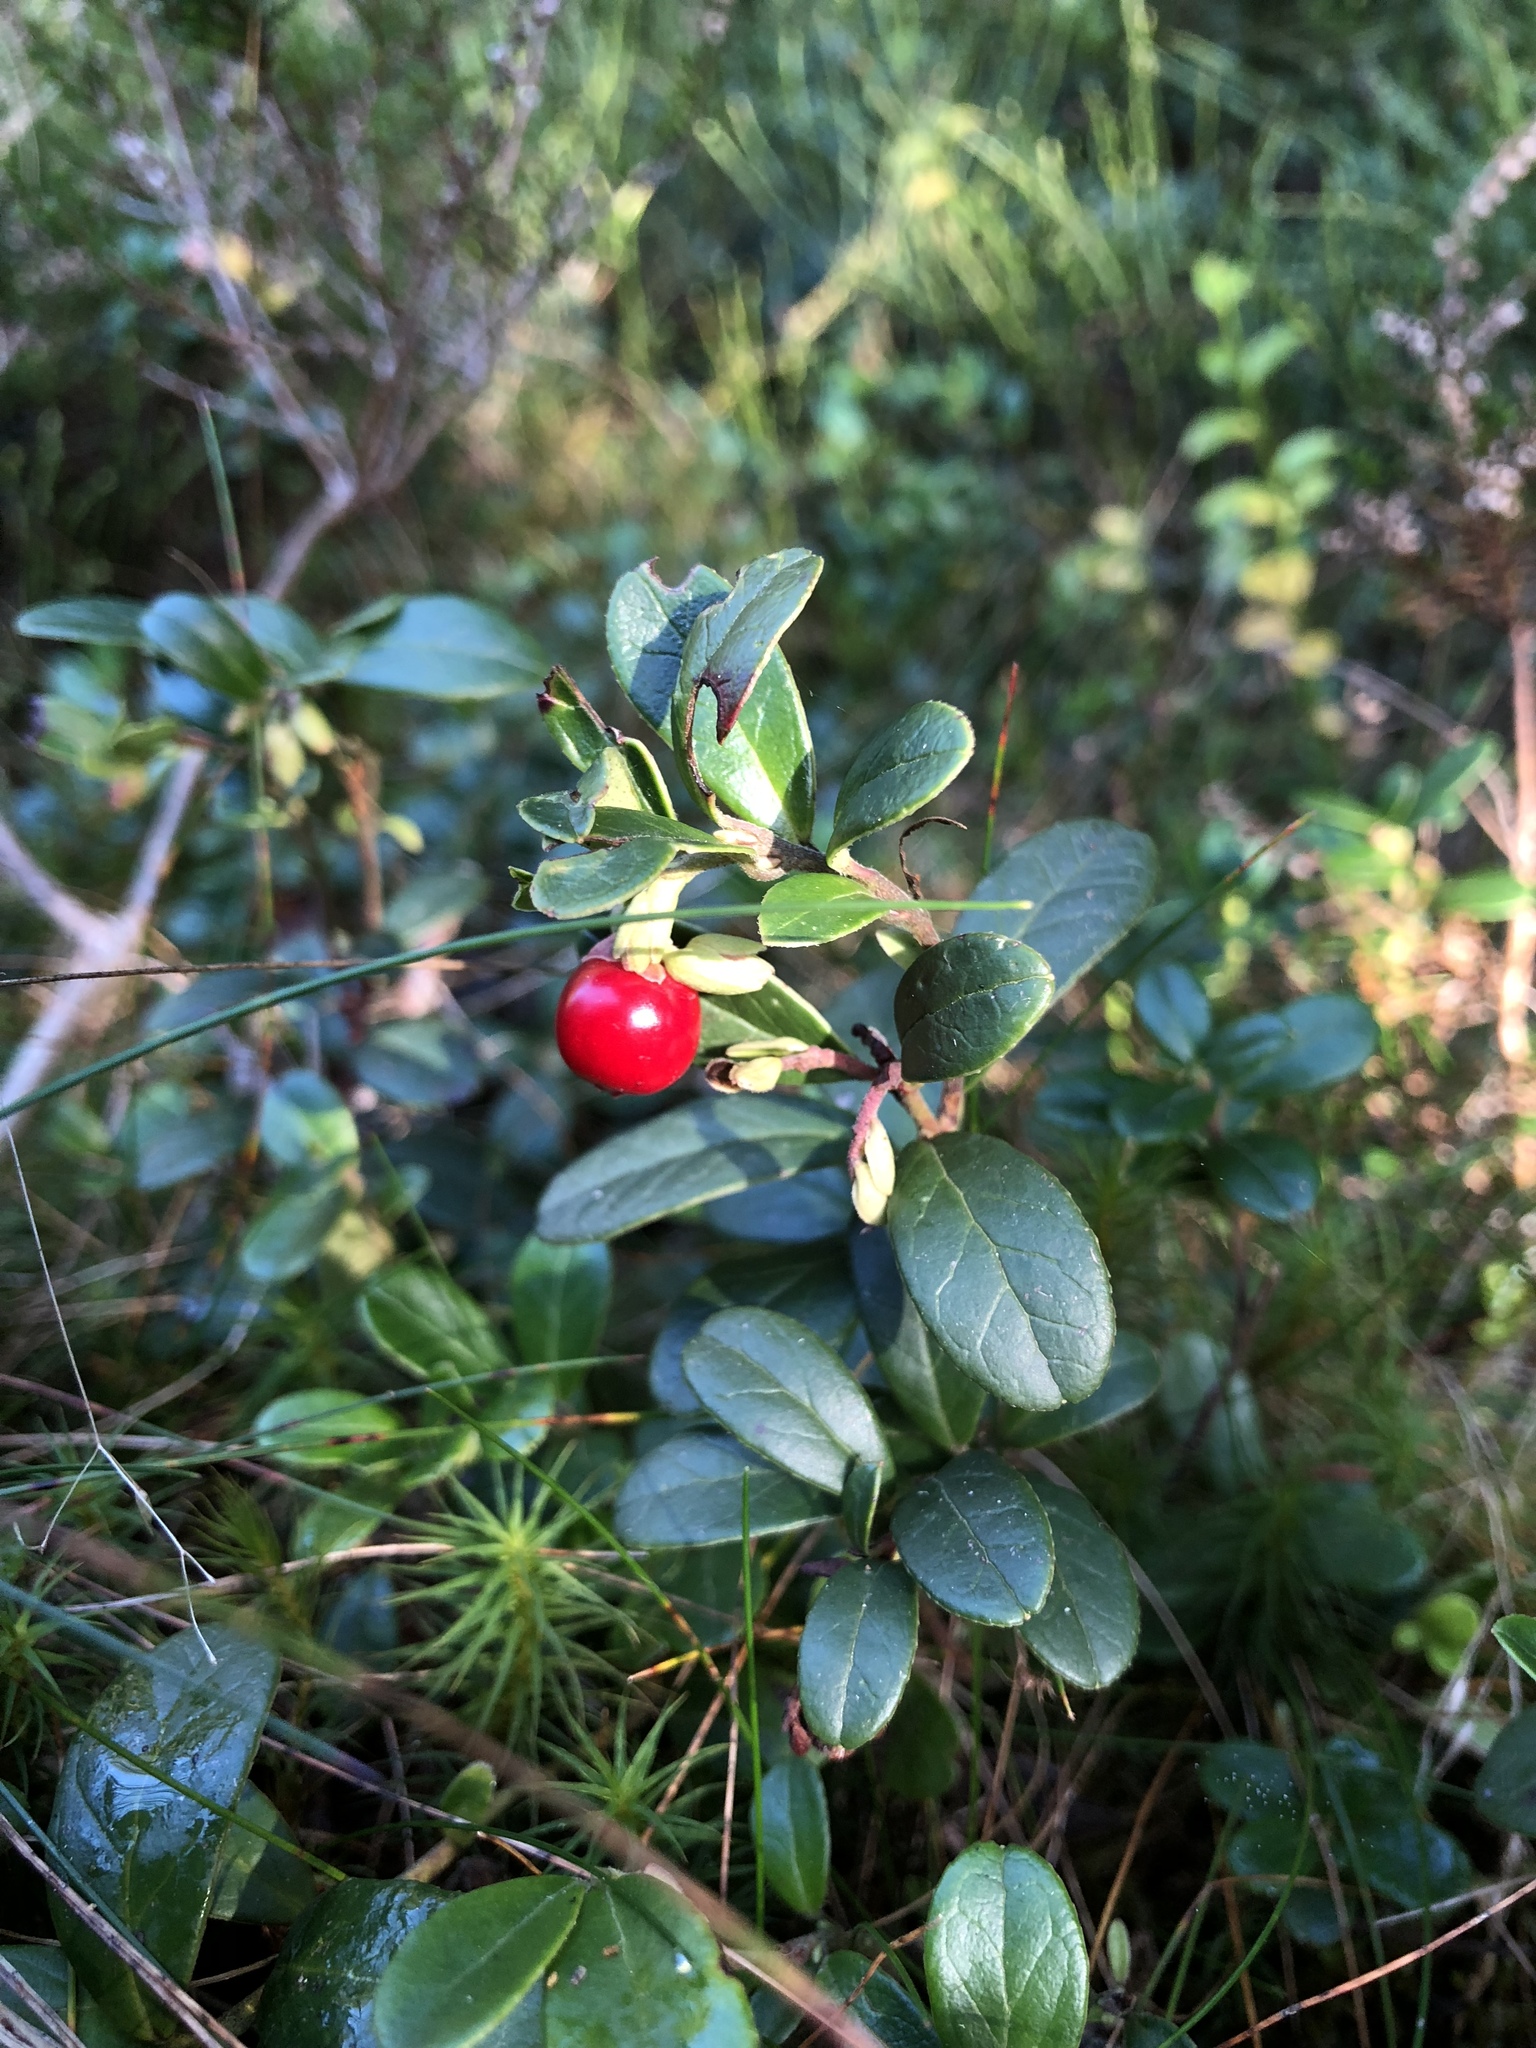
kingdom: Plantae
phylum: Tracheophyta
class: Magnoliopsida
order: Ericales
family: Ericaceae
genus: Vaccinium
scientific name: Vaccinium vitis-idaea
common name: Cowberry
